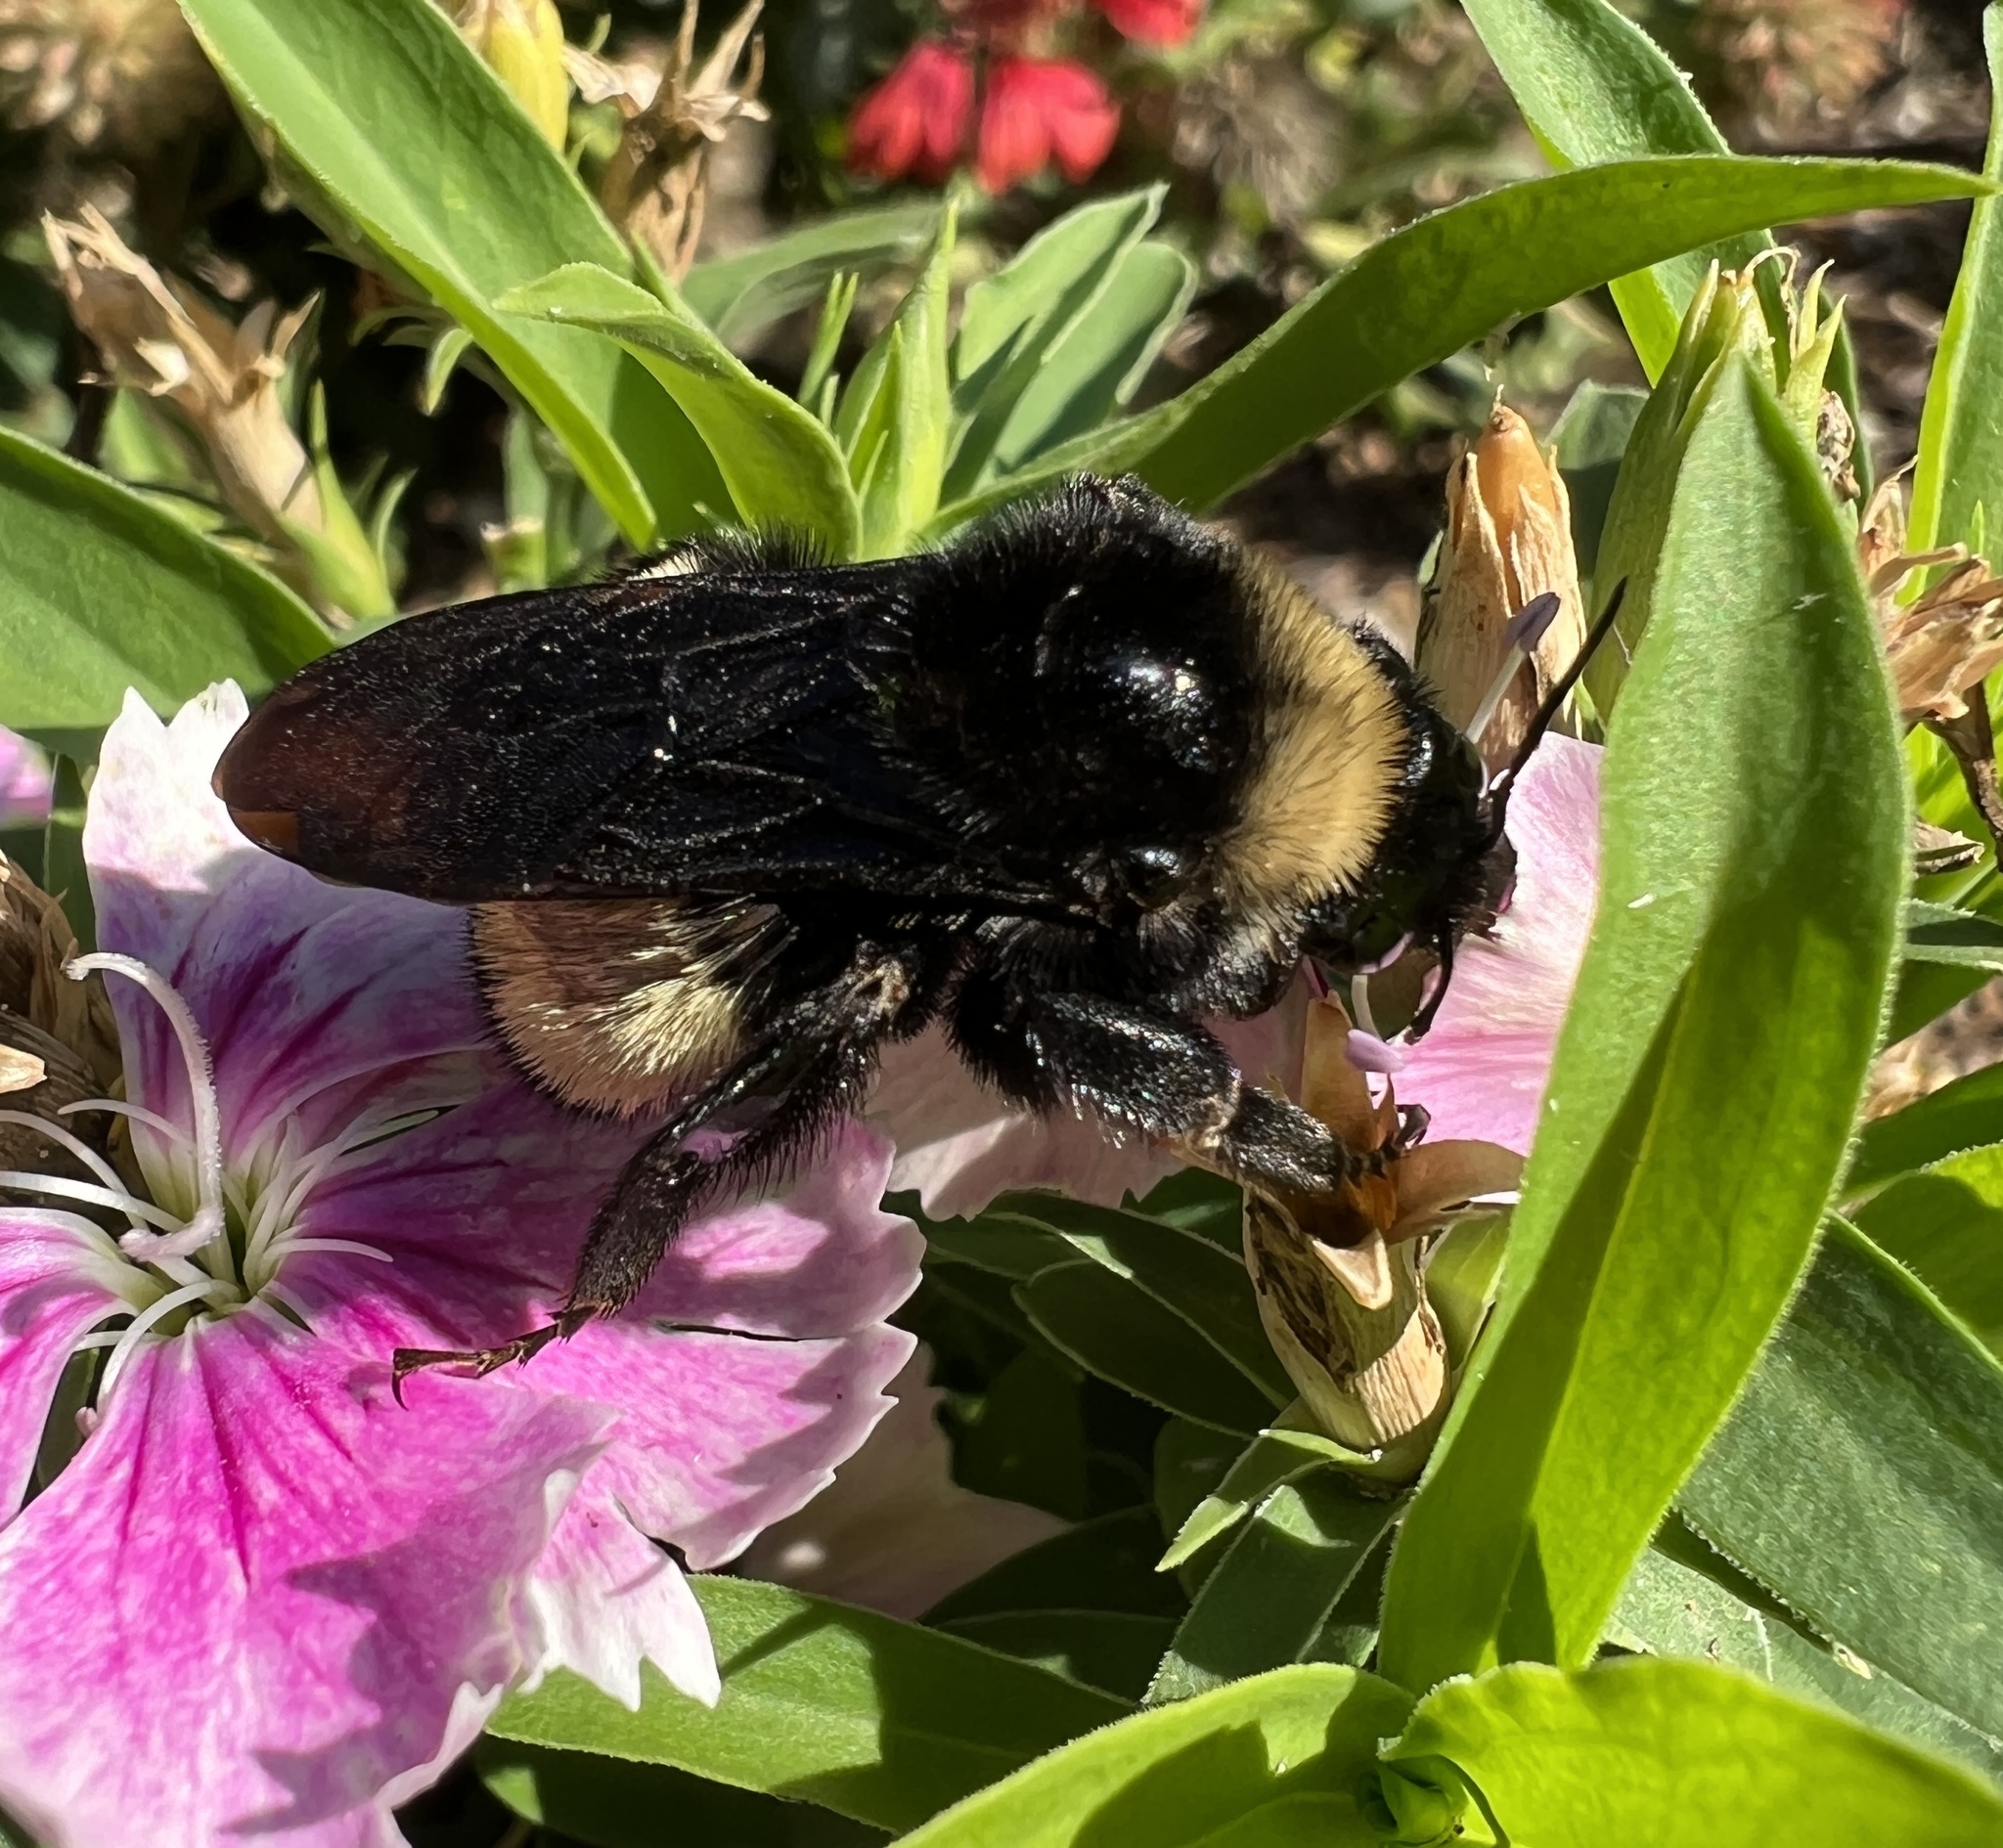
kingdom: Animalia
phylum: Arthropoda
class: Insecta
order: Hymenoptera
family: Apidae
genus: Bombus
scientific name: Bombus pensylvanicus
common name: Bumble bee
